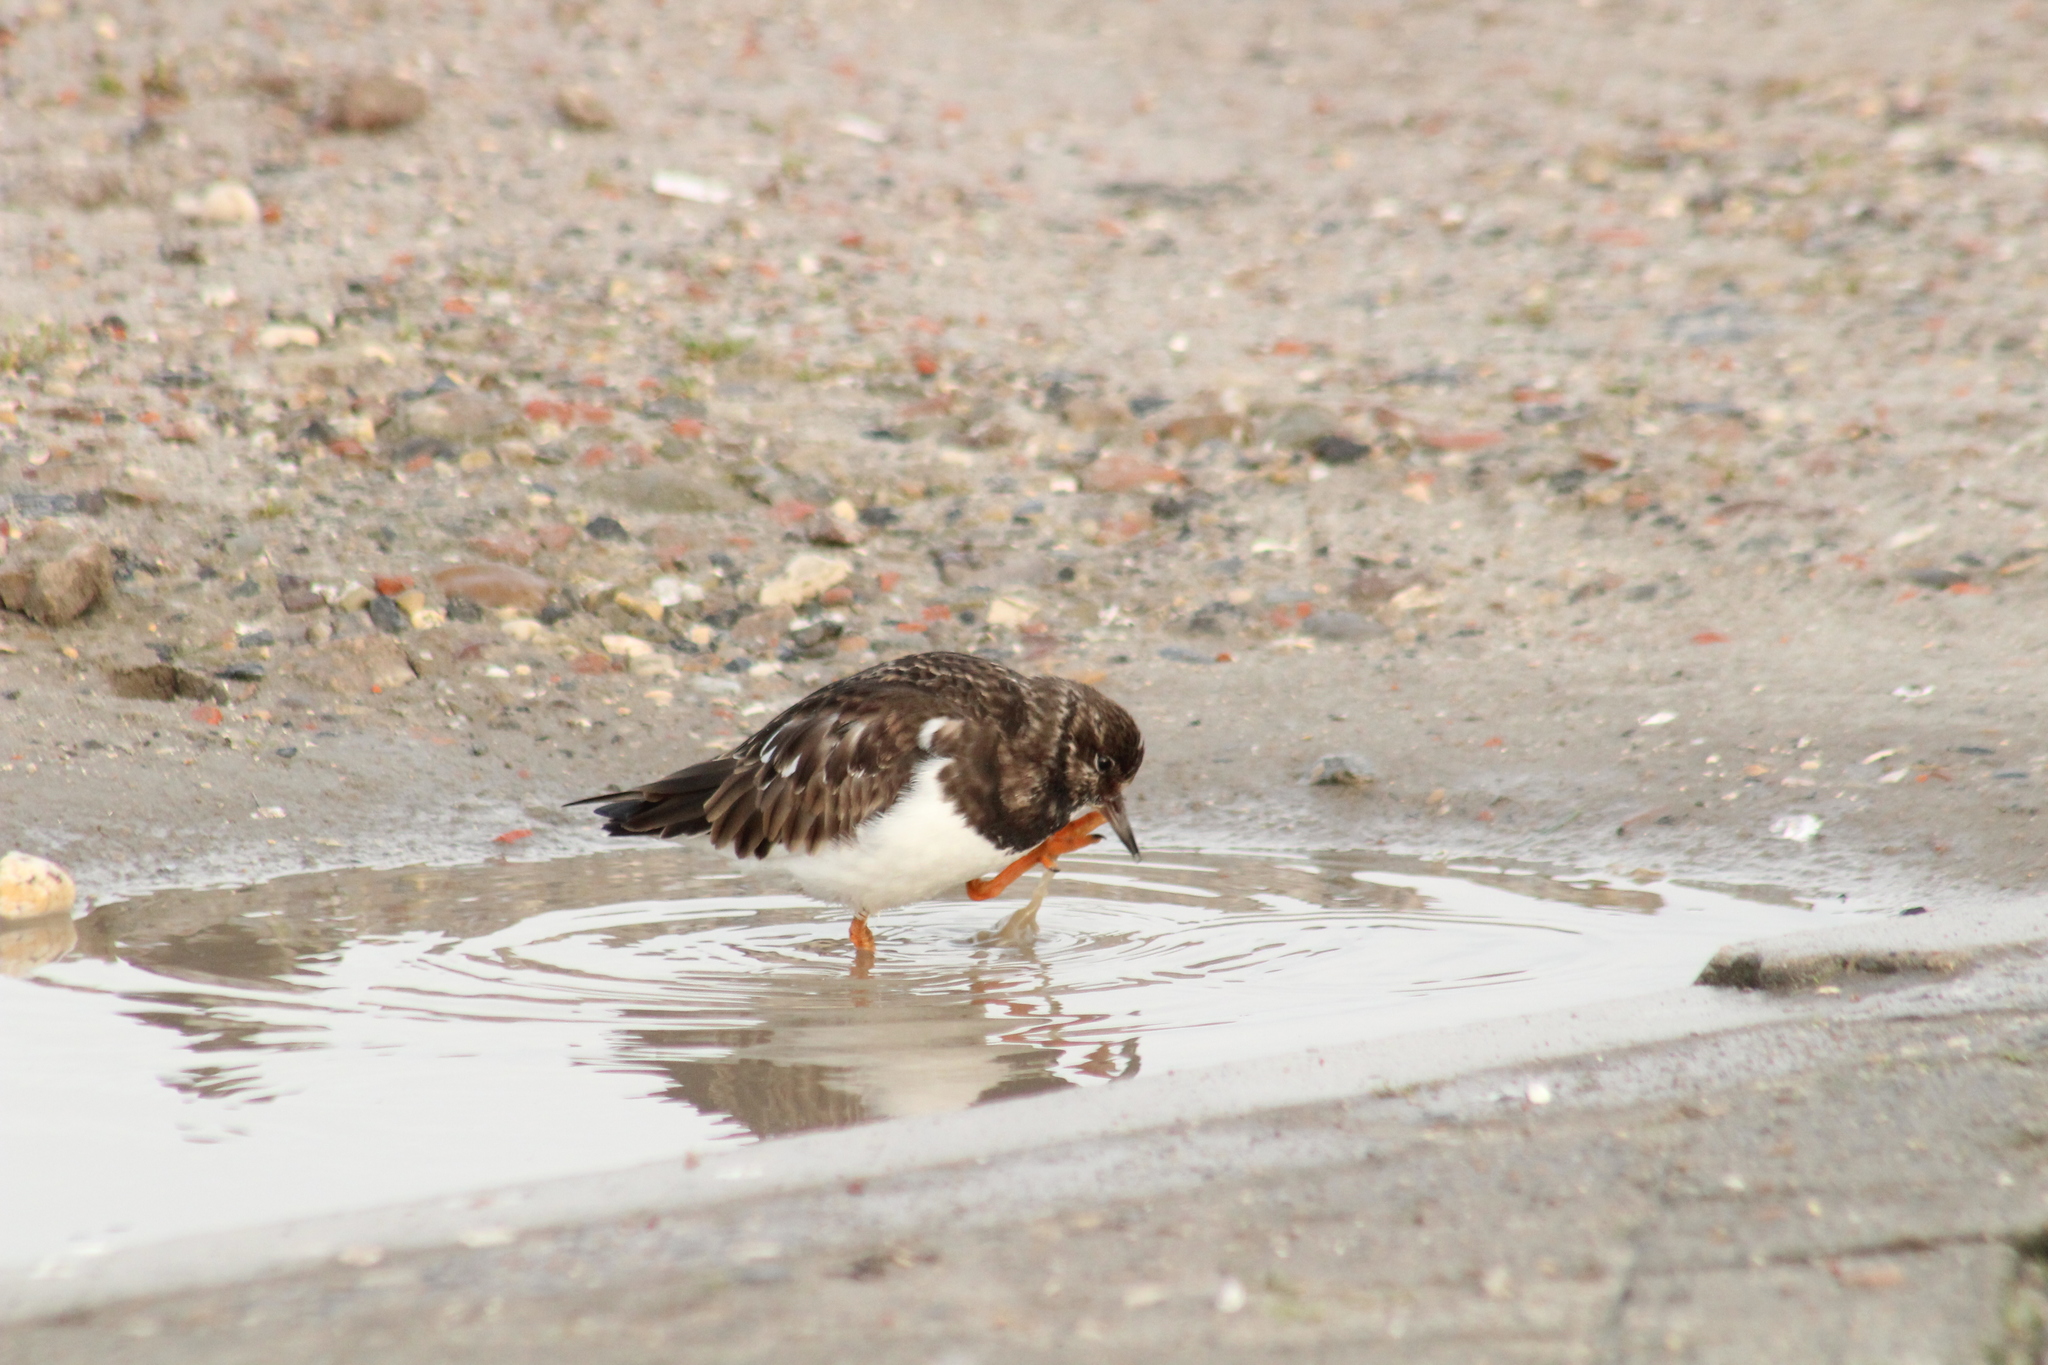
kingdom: Animalia
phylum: Chordata
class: Aves
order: Charadriiformes
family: Scolopacidae
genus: Arenaria
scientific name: Arenaria interpres
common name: Ruddy turnstone
